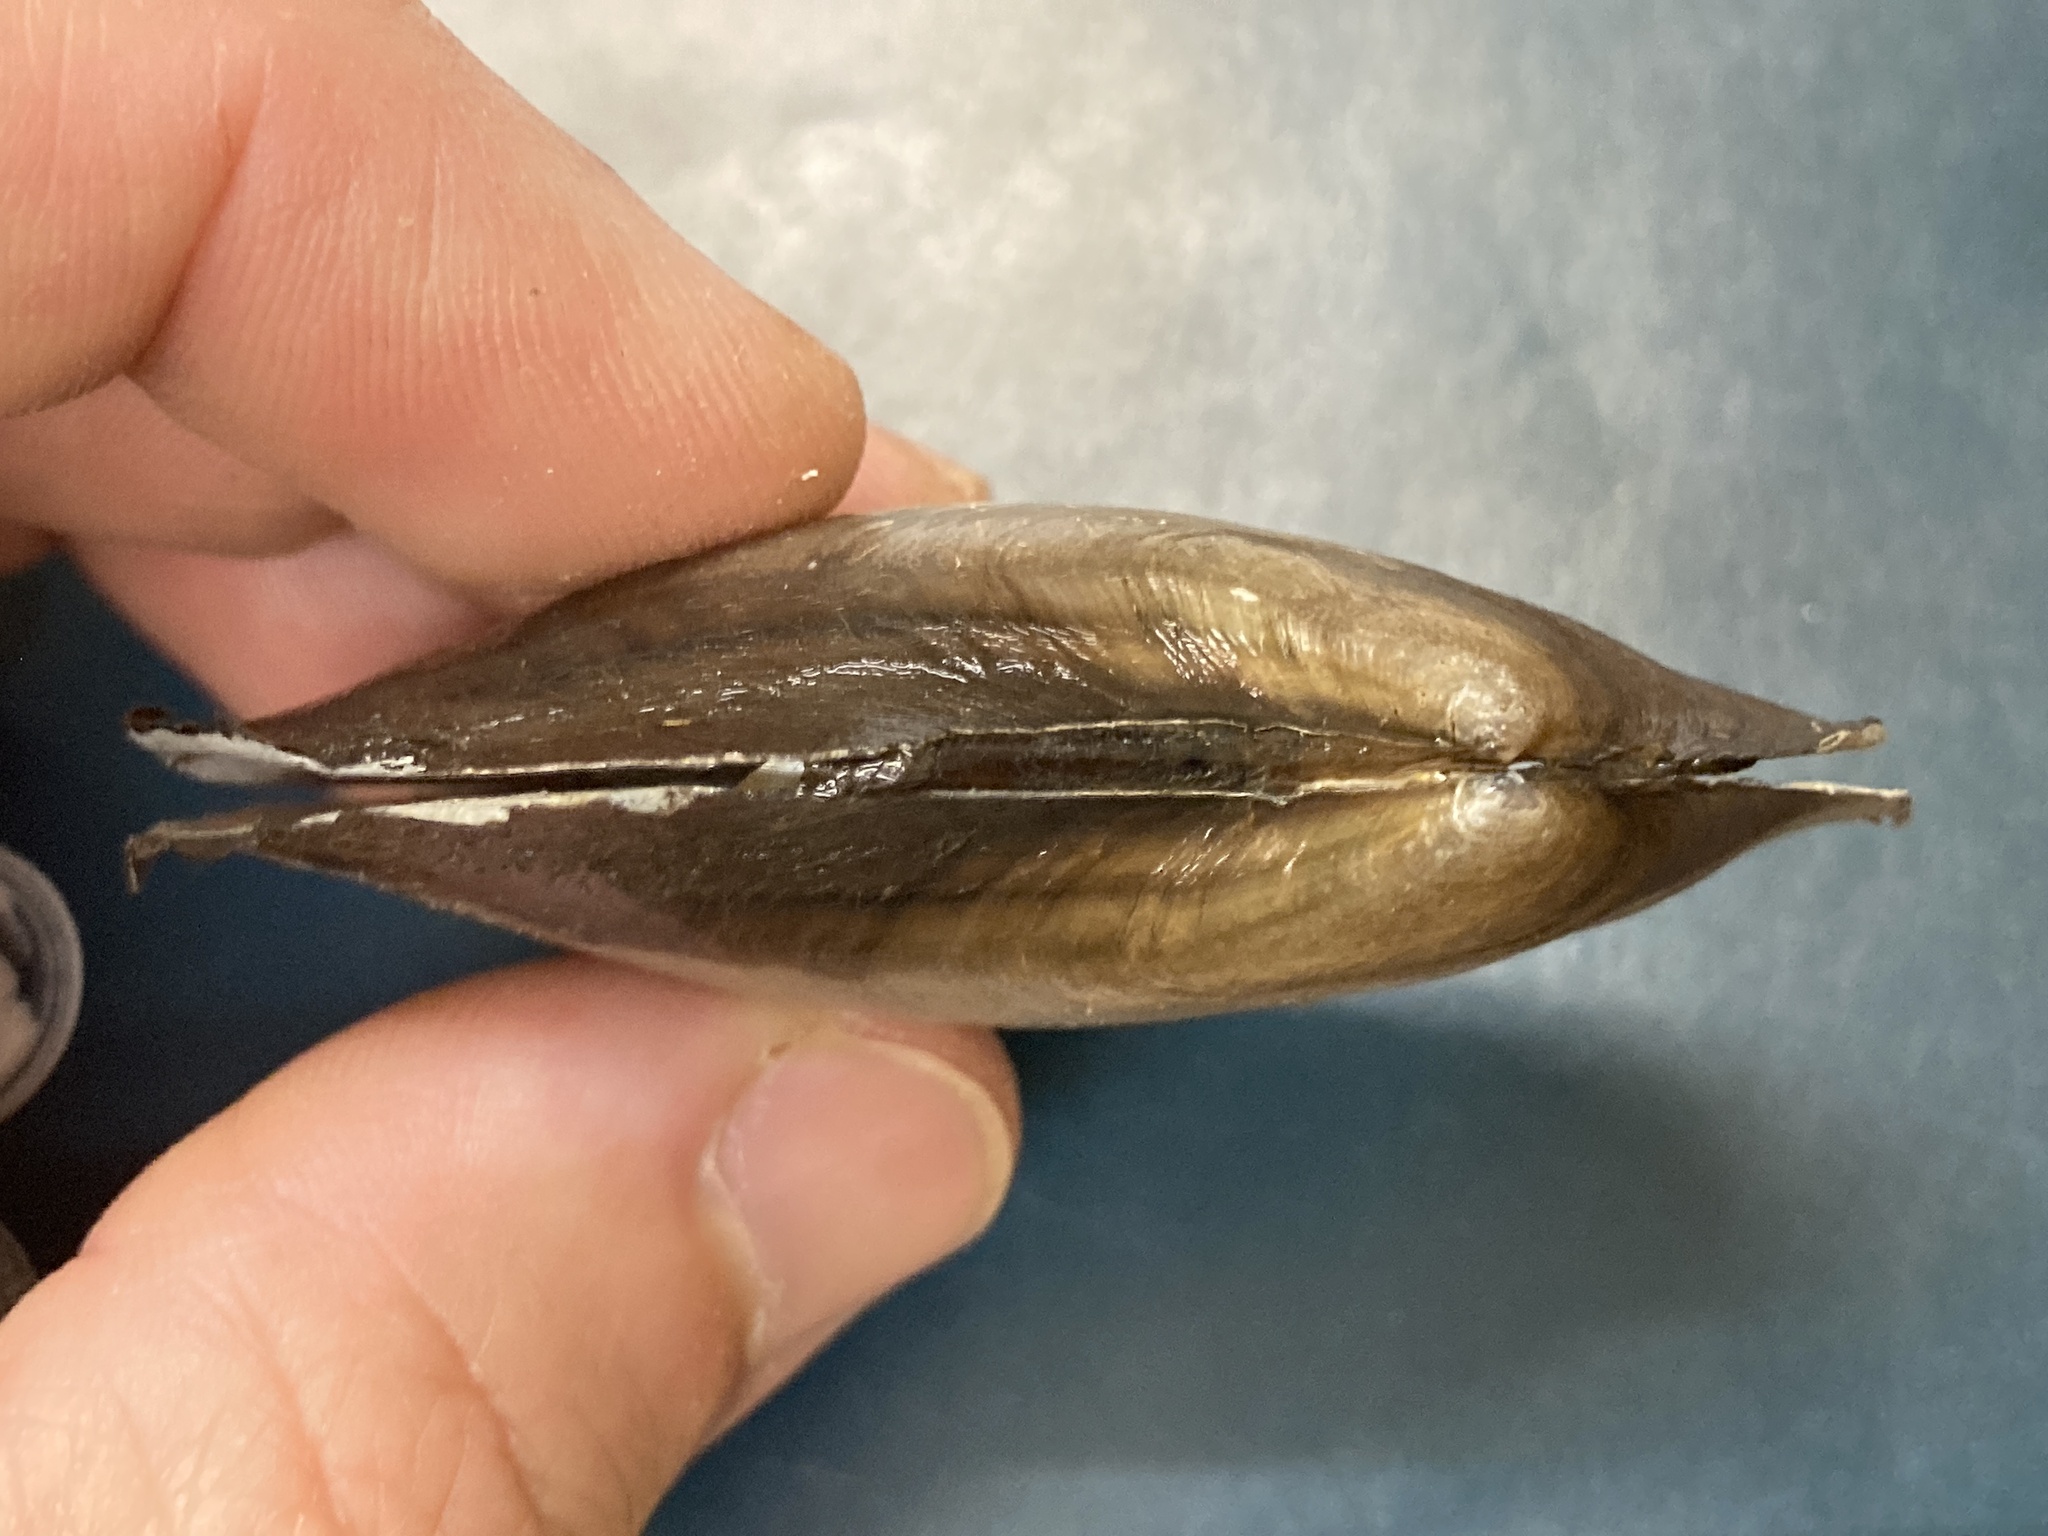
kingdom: Animalia
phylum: Mollusca
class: Bivalvia
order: Unionida
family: Unionidae
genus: Potamilus
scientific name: Potamilus fragilis
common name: Fragile papershell
